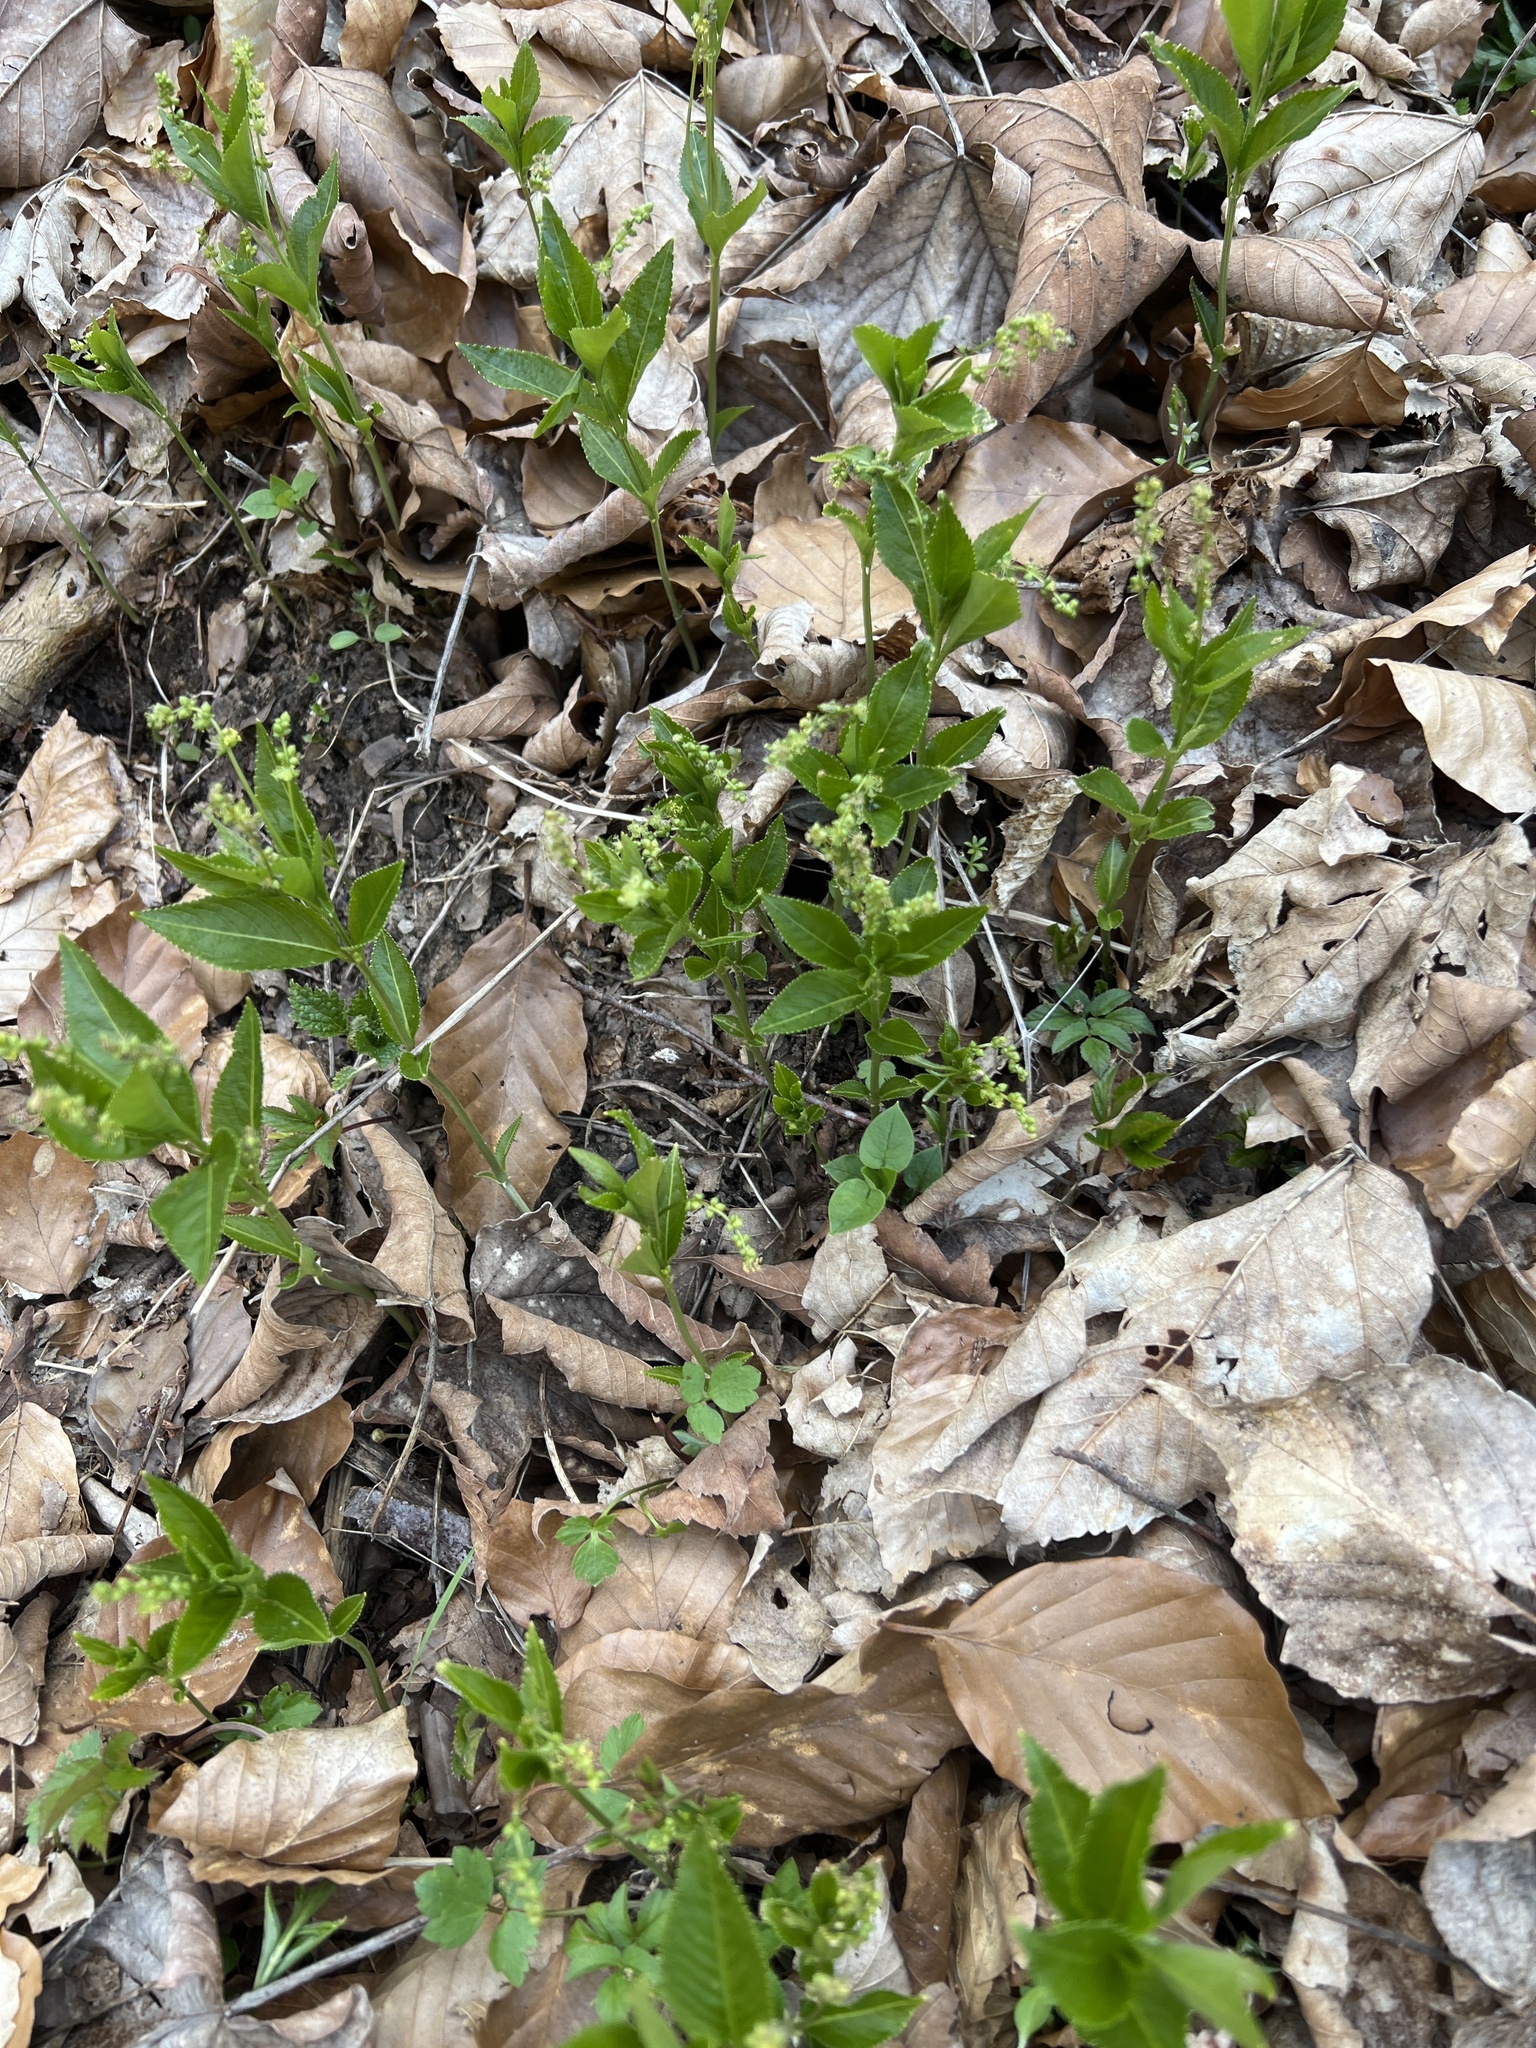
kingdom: Plantae
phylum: Tracheophyta
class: Magnoliopsida
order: Malpighiales
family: Euphorbiaceae
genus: Mercurialis
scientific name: Mercurialis perennis
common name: Dog mercury
